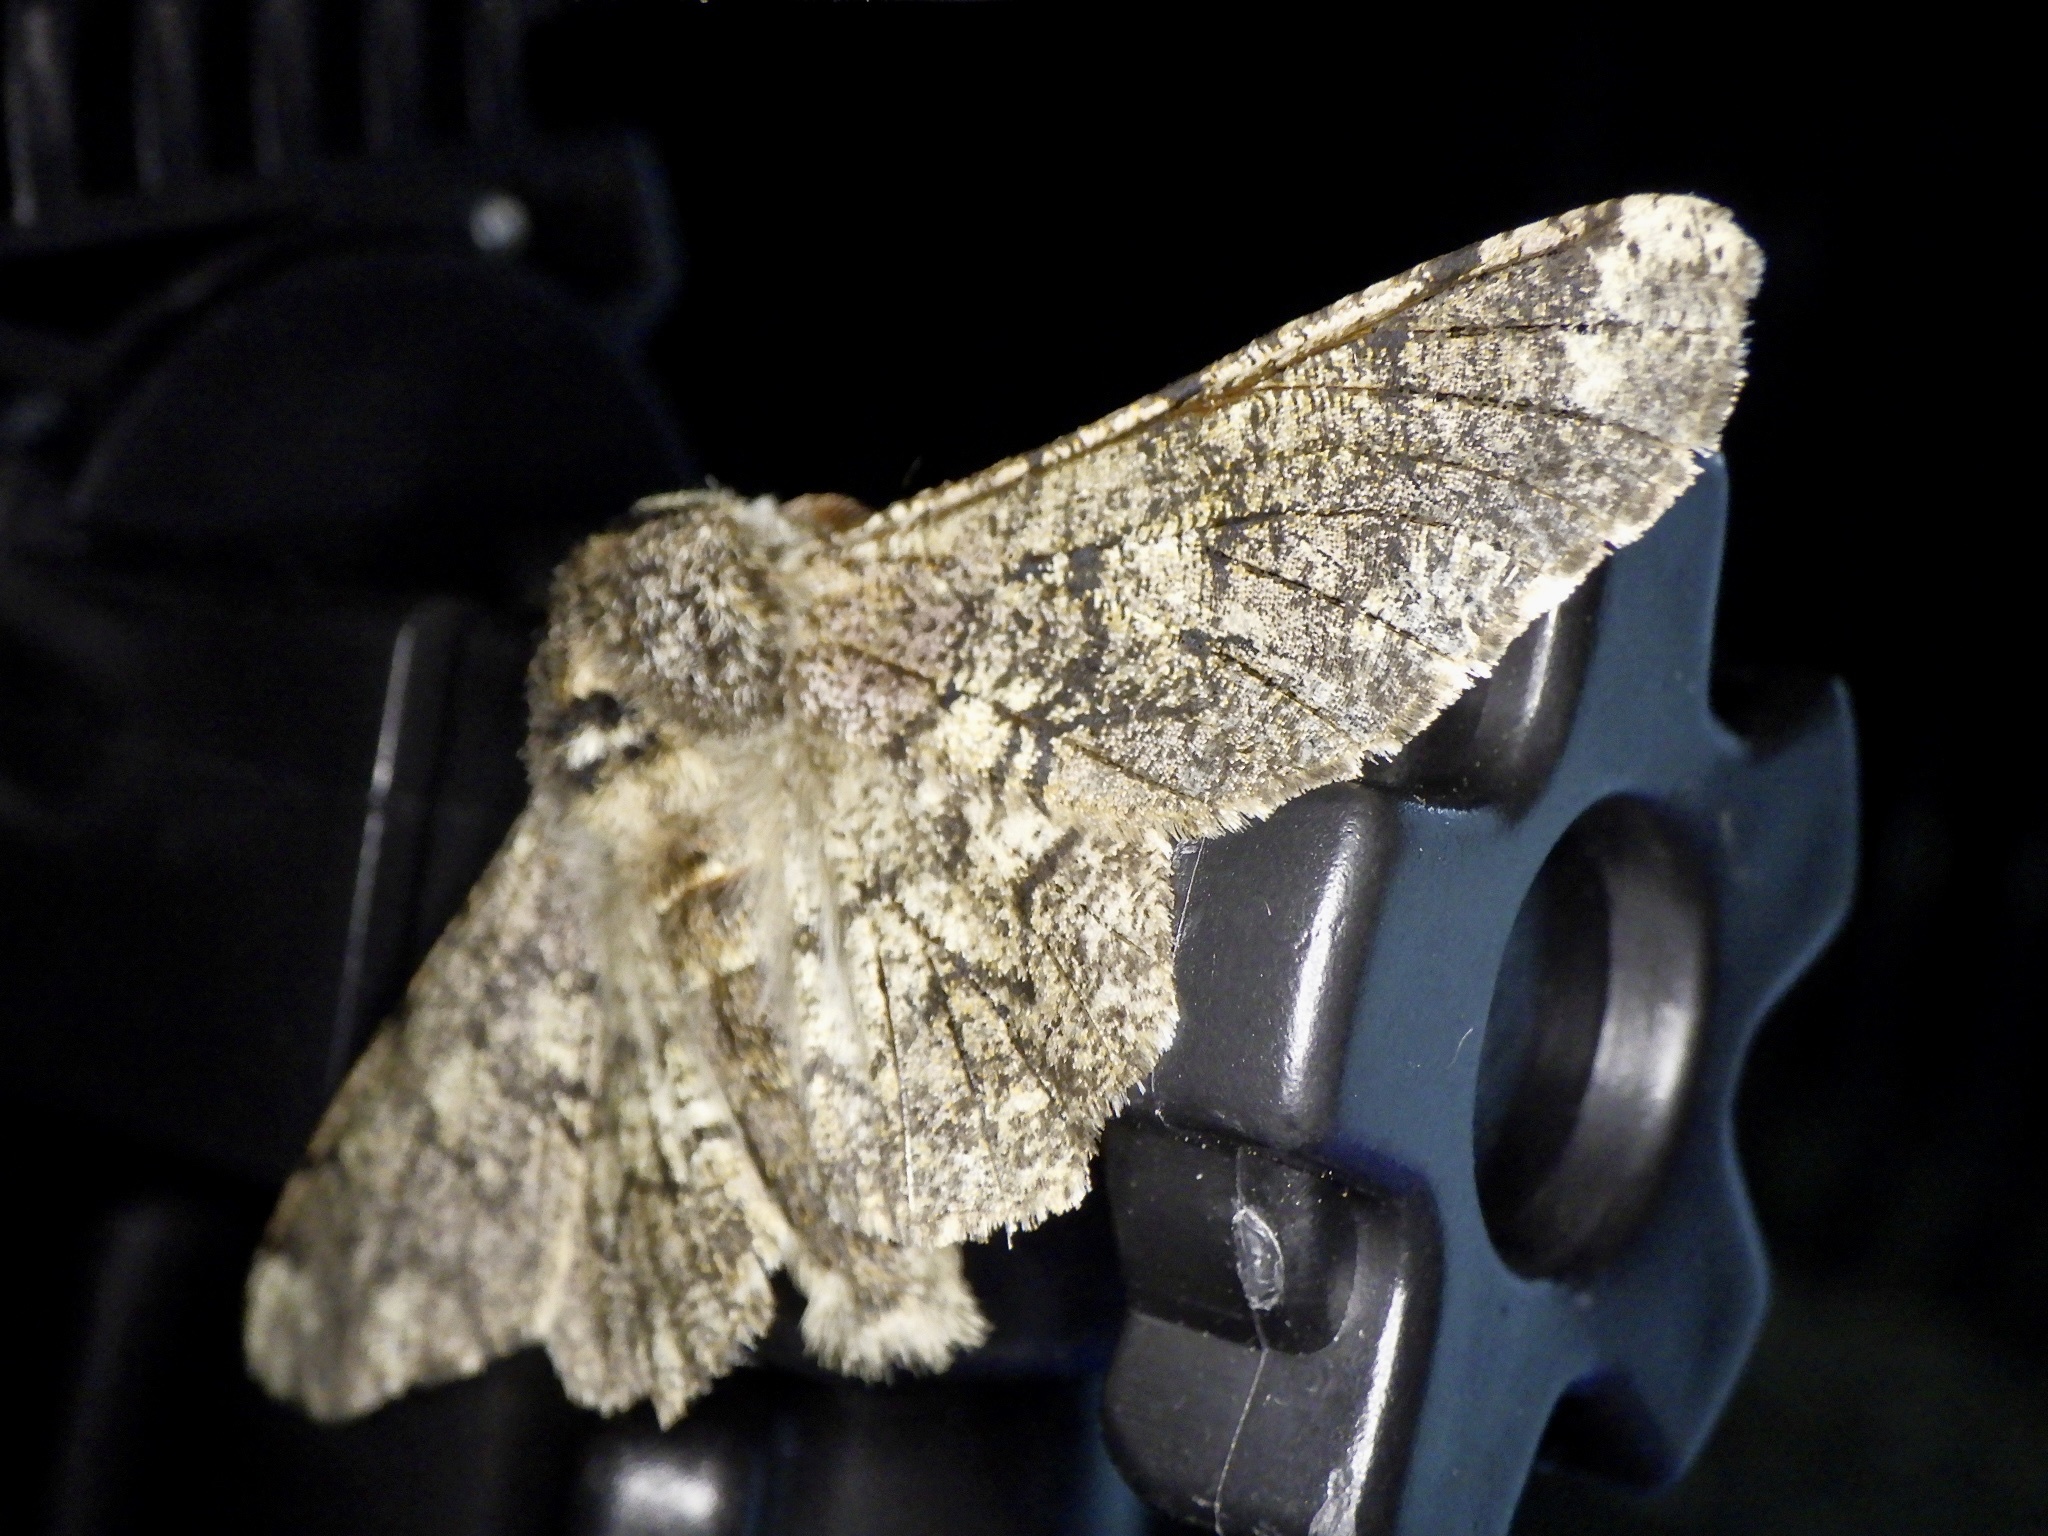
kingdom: Animalia
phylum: Arthropoda
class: Insecta
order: Lepidoptera
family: Geometridae
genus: Biston
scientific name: Biston robustum
